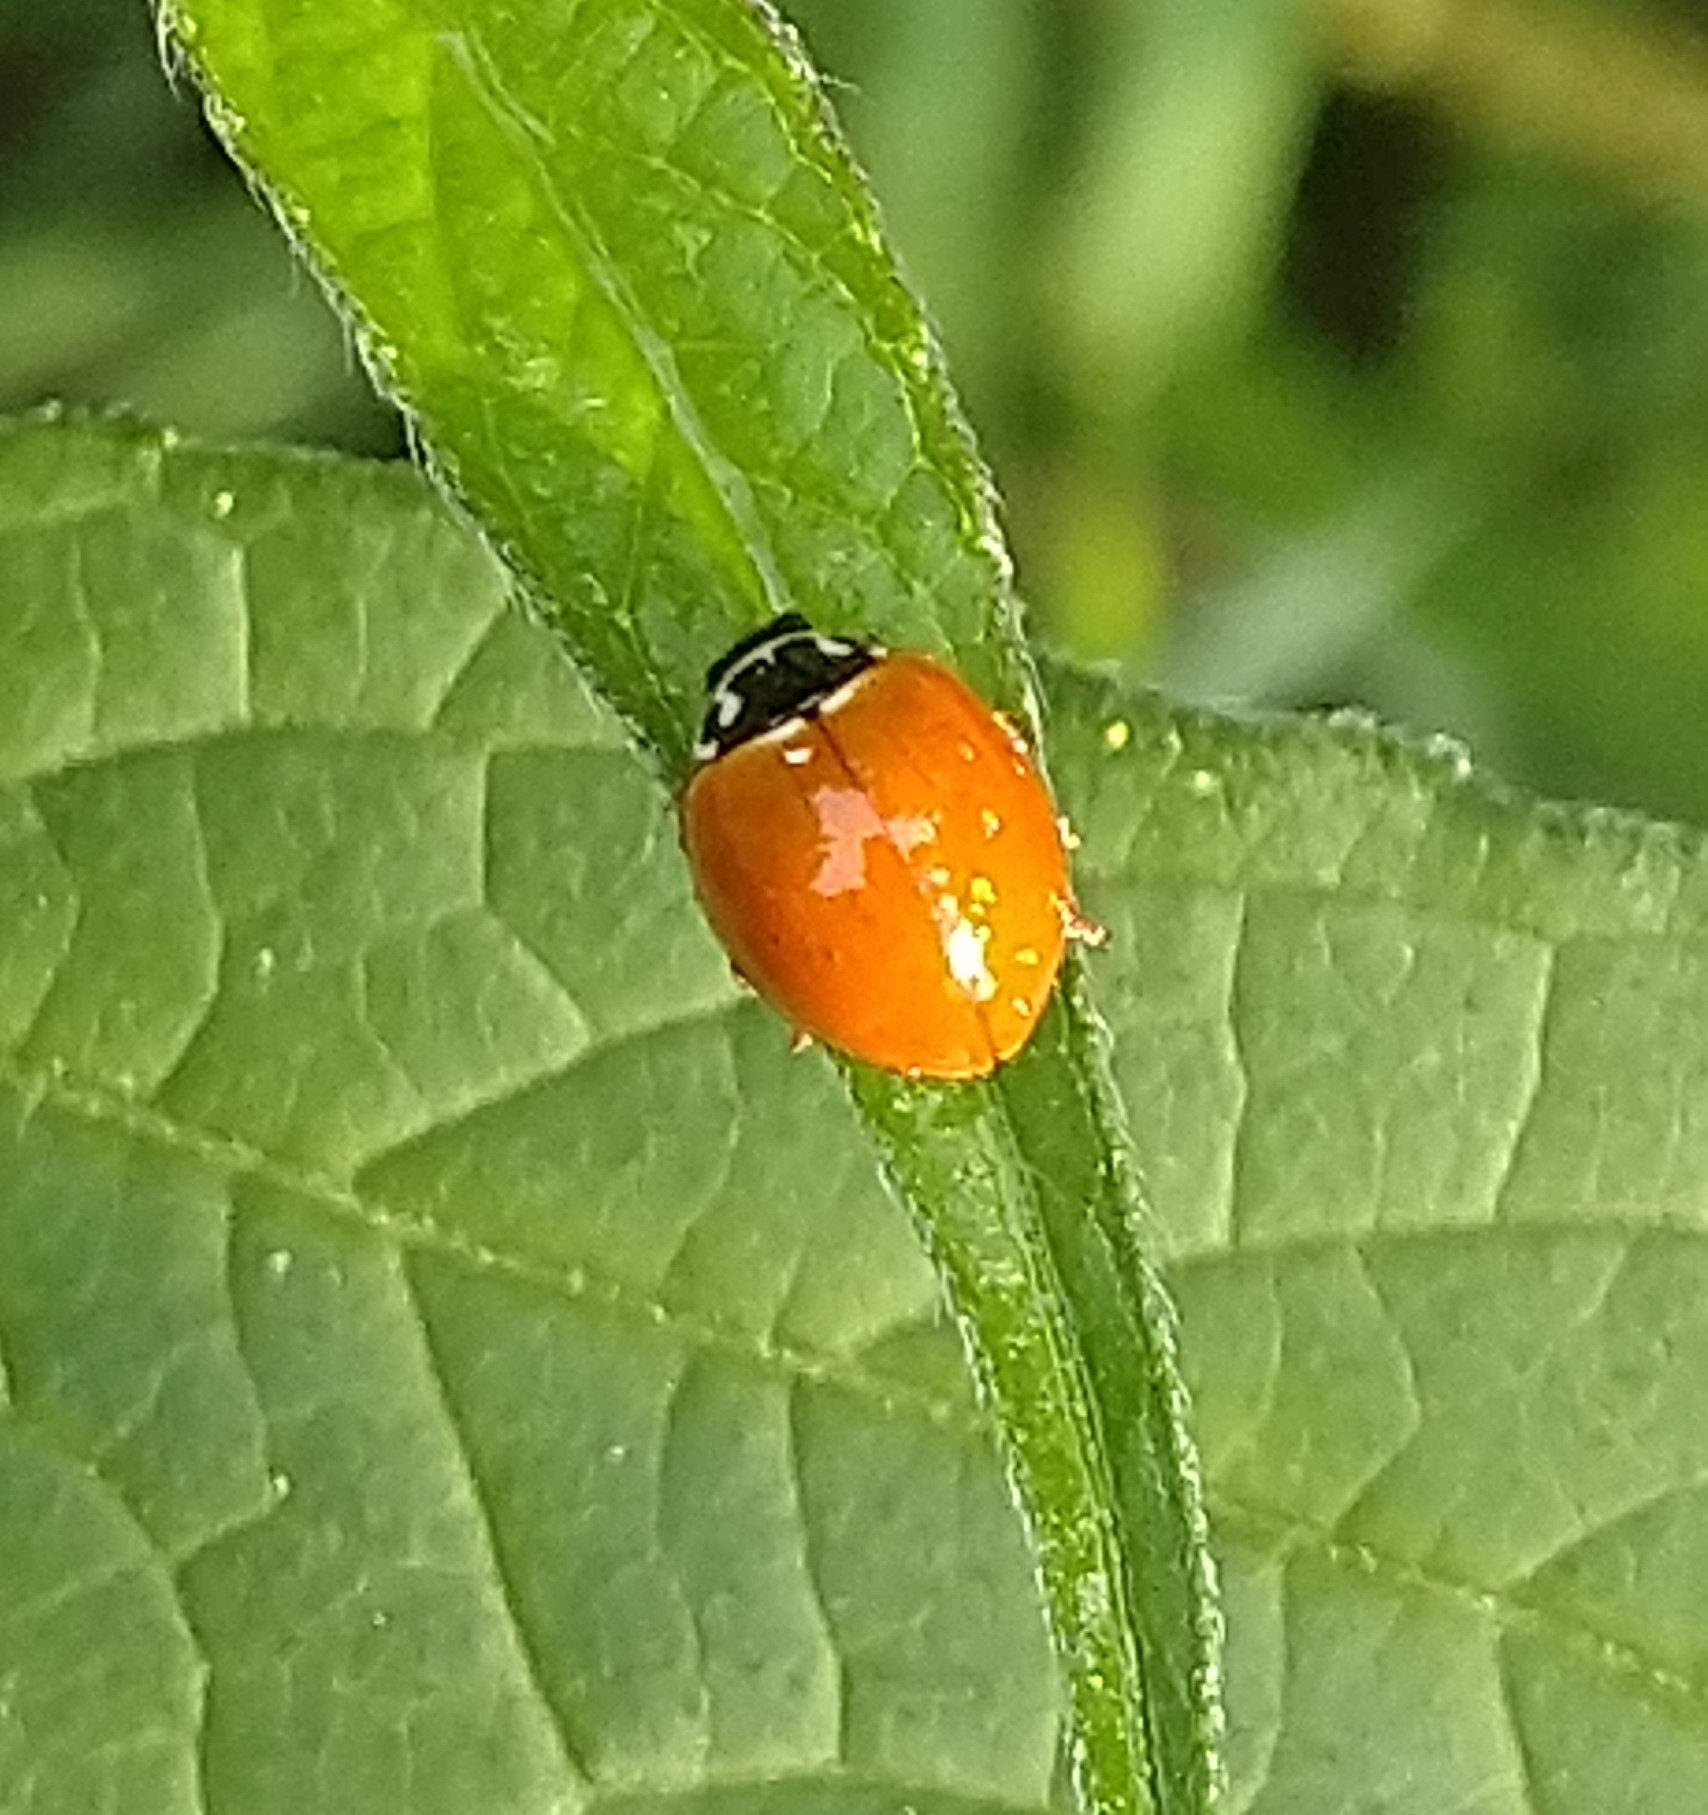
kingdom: Animalia
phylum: Arthropoda
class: Insecta
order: Coleoptera
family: Coccinellidae
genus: Cycloneda
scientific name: Cycloneda munda
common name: Polished lady beetle
